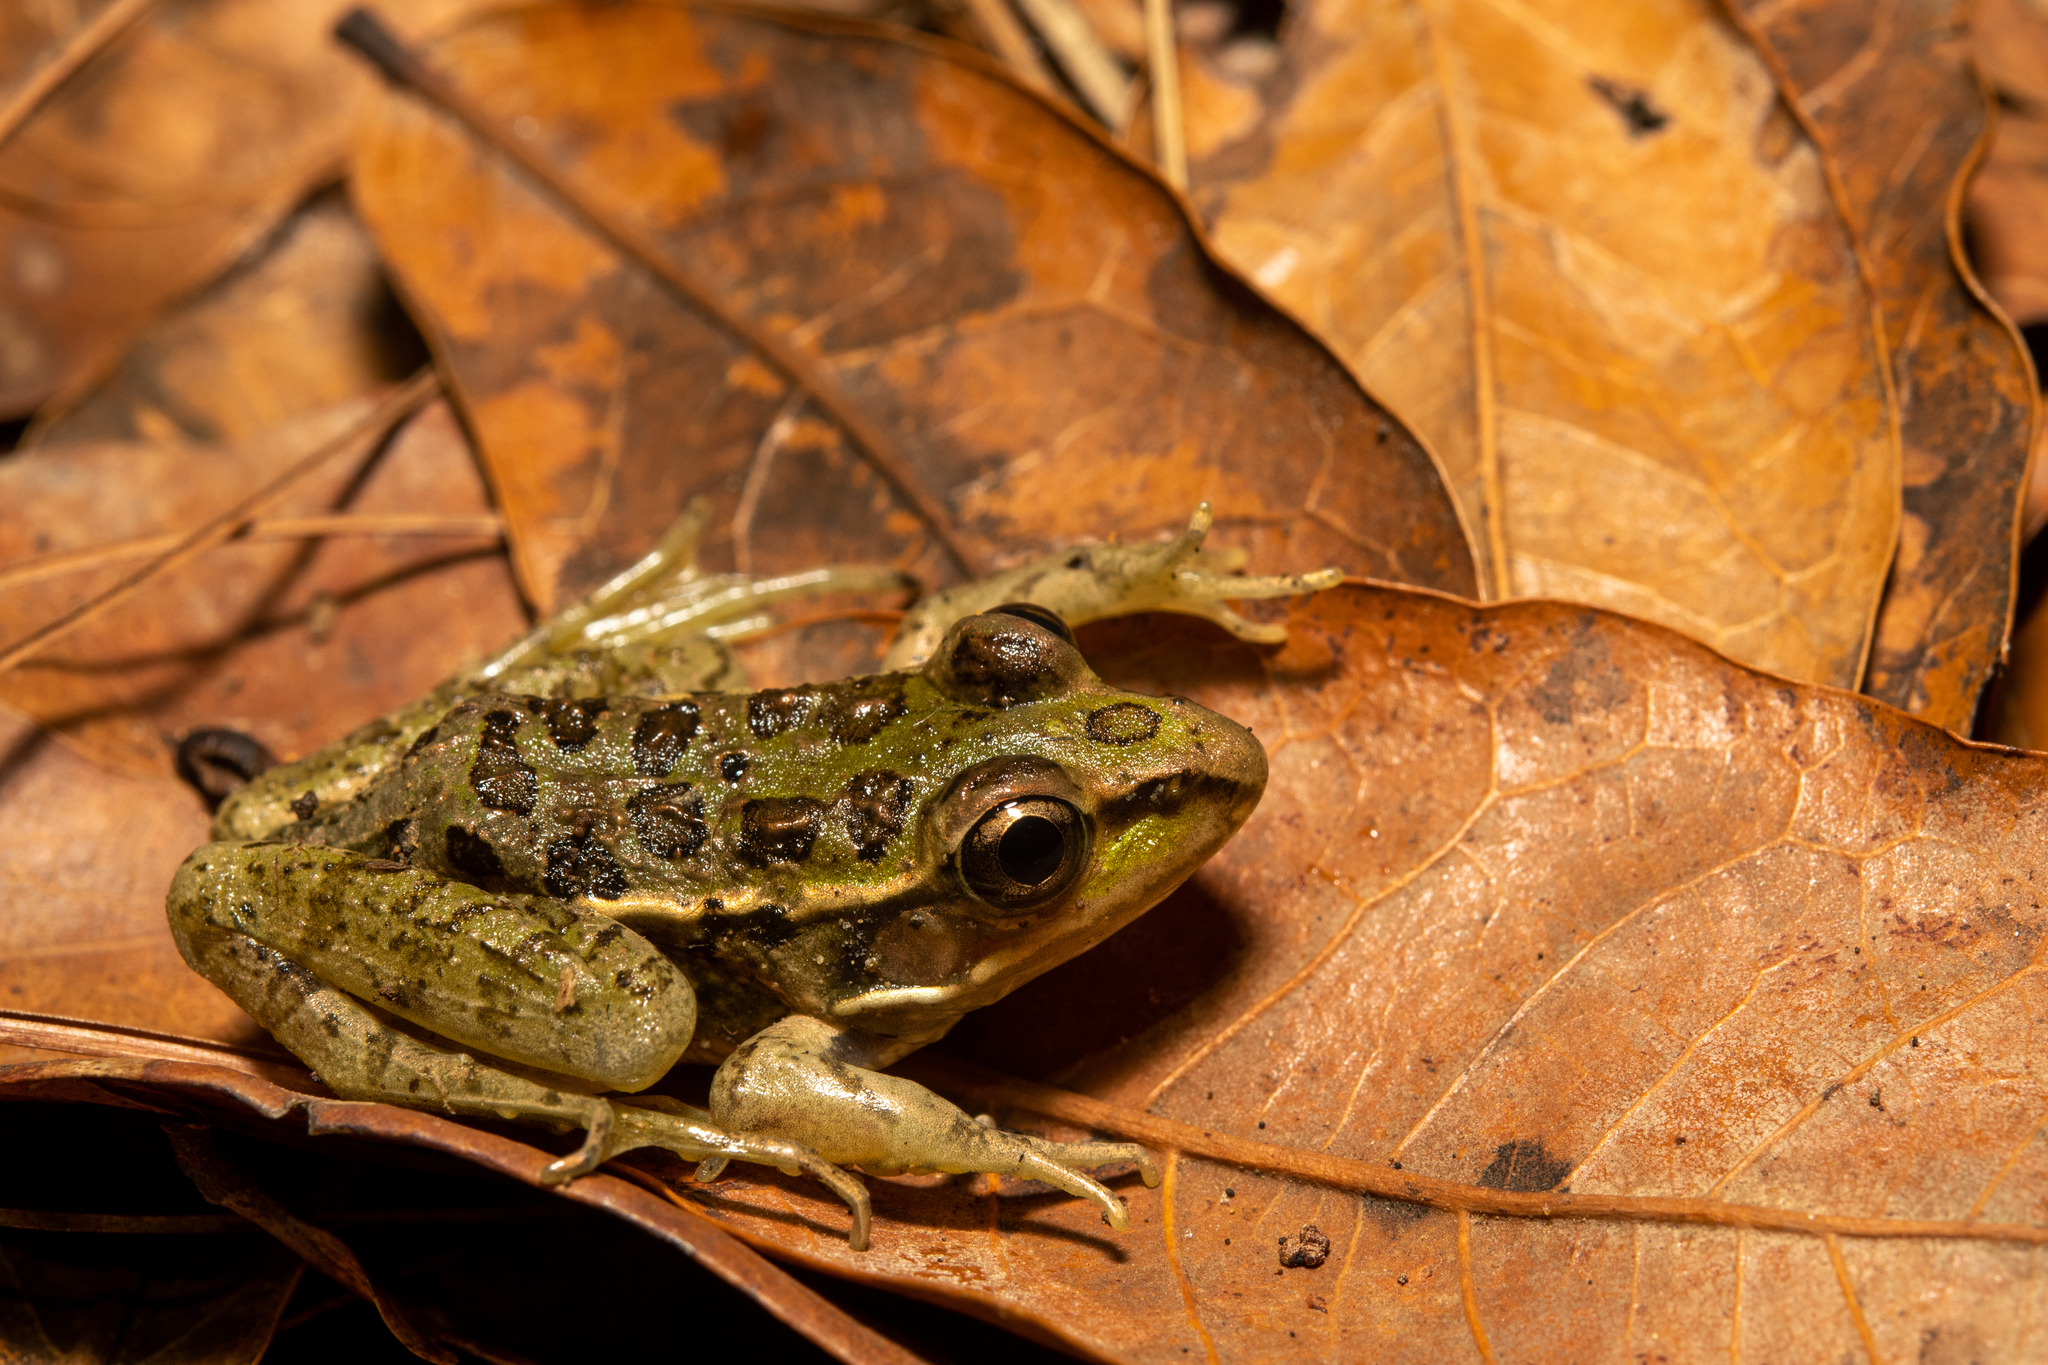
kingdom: Animalia
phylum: Chordata
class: Amphibia
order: Anura
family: Ranidae
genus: Lithobates
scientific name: Lithobates lenca
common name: Lenca leopard frog
